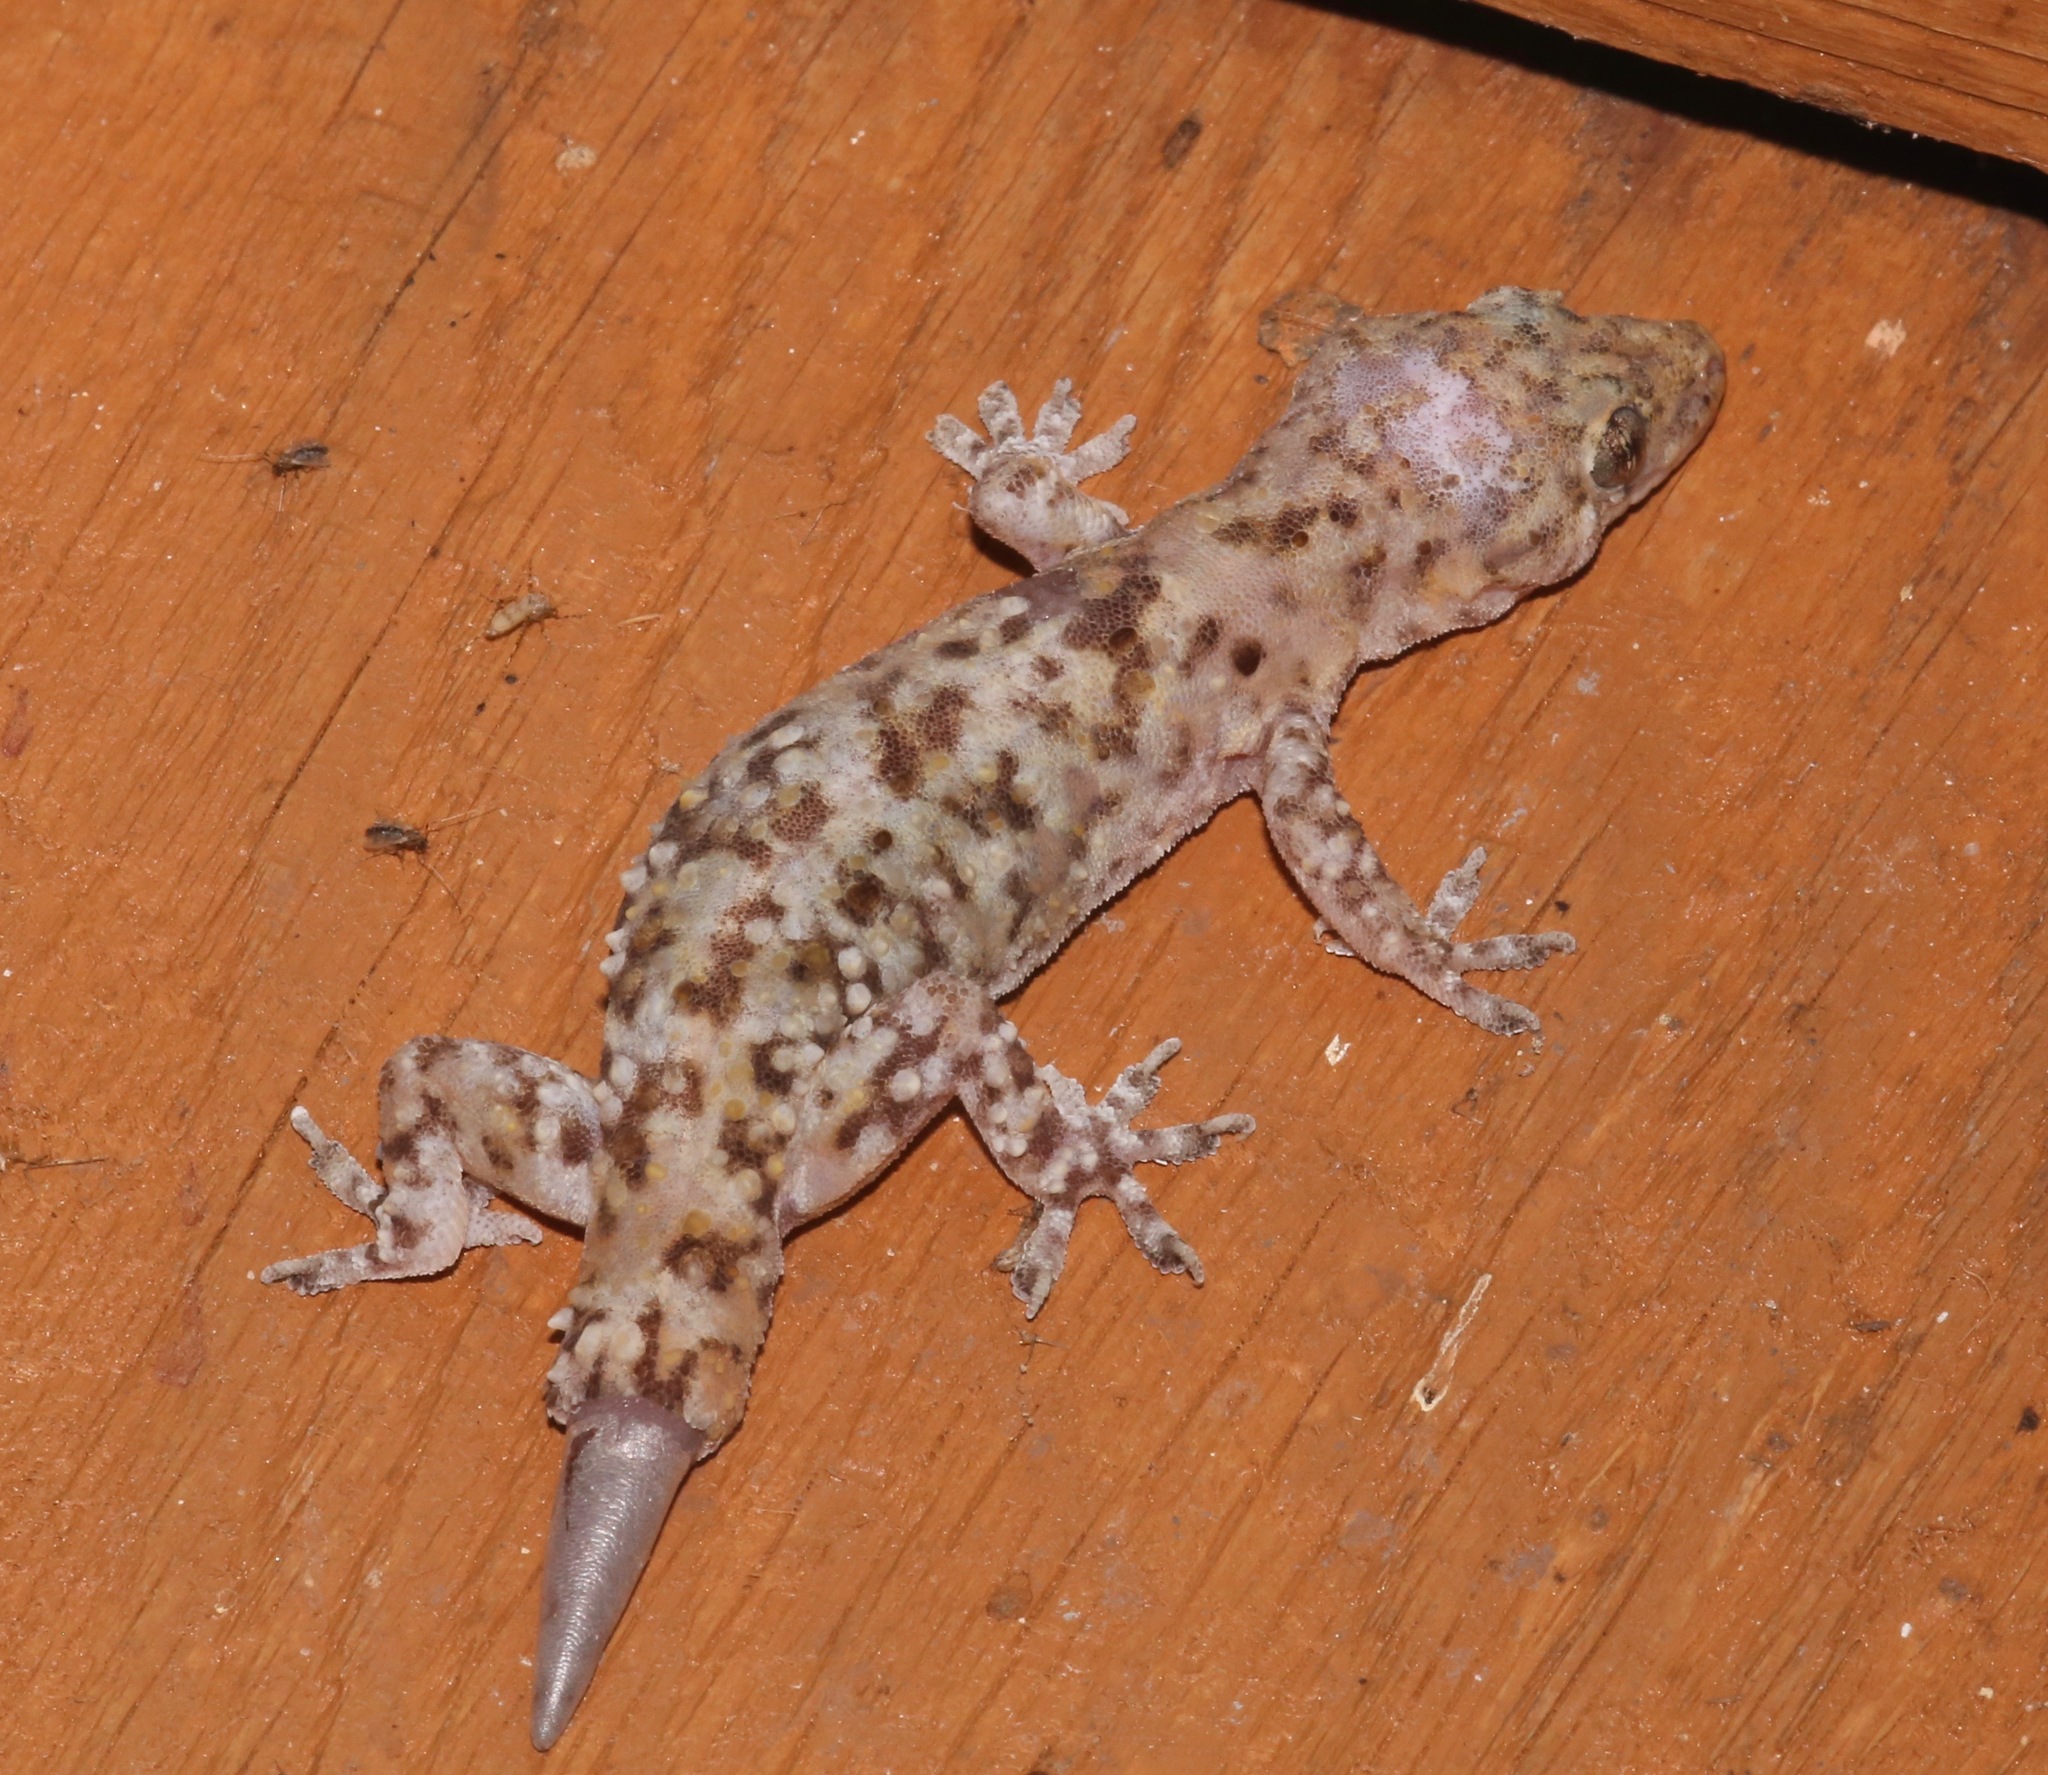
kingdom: Animalia
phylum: Chordata
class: Squamata
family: Gekkonidae
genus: Hemidactylus
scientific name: Hemidactylus turcicus
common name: Turkish gecko
